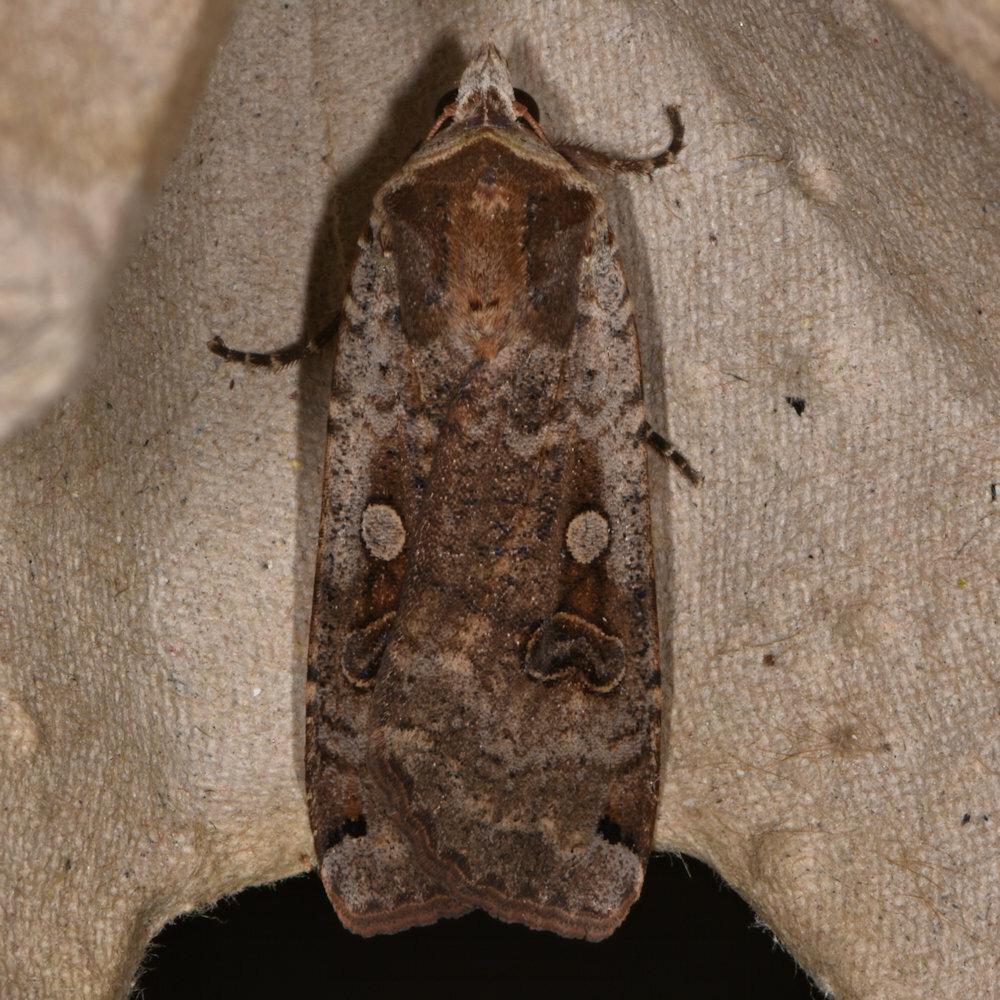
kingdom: Animalia
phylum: Arthropoda
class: Insecta
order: Lepidoptera
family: Noctuidae
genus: Noctua
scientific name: Noctua pronuba
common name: Large yellow underwing
